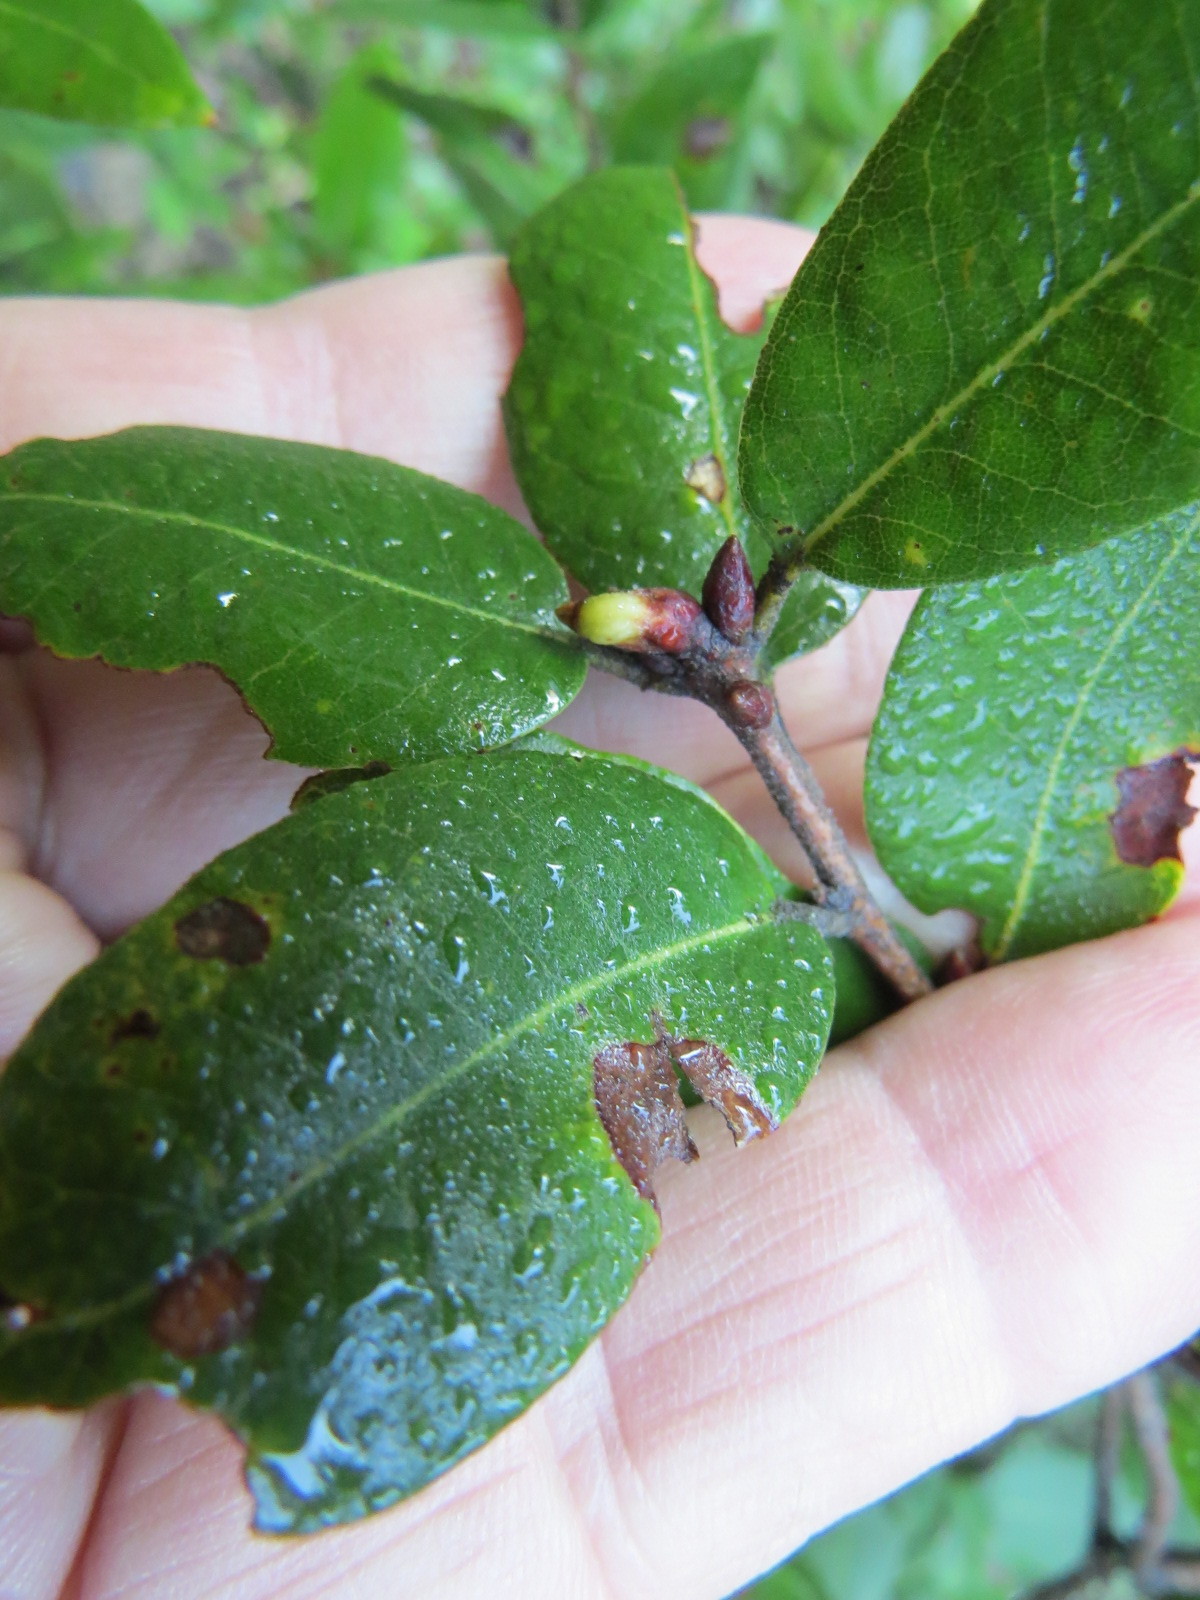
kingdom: Animalia
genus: Grahamstoneia
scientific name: Grahamstoneia humboldti
